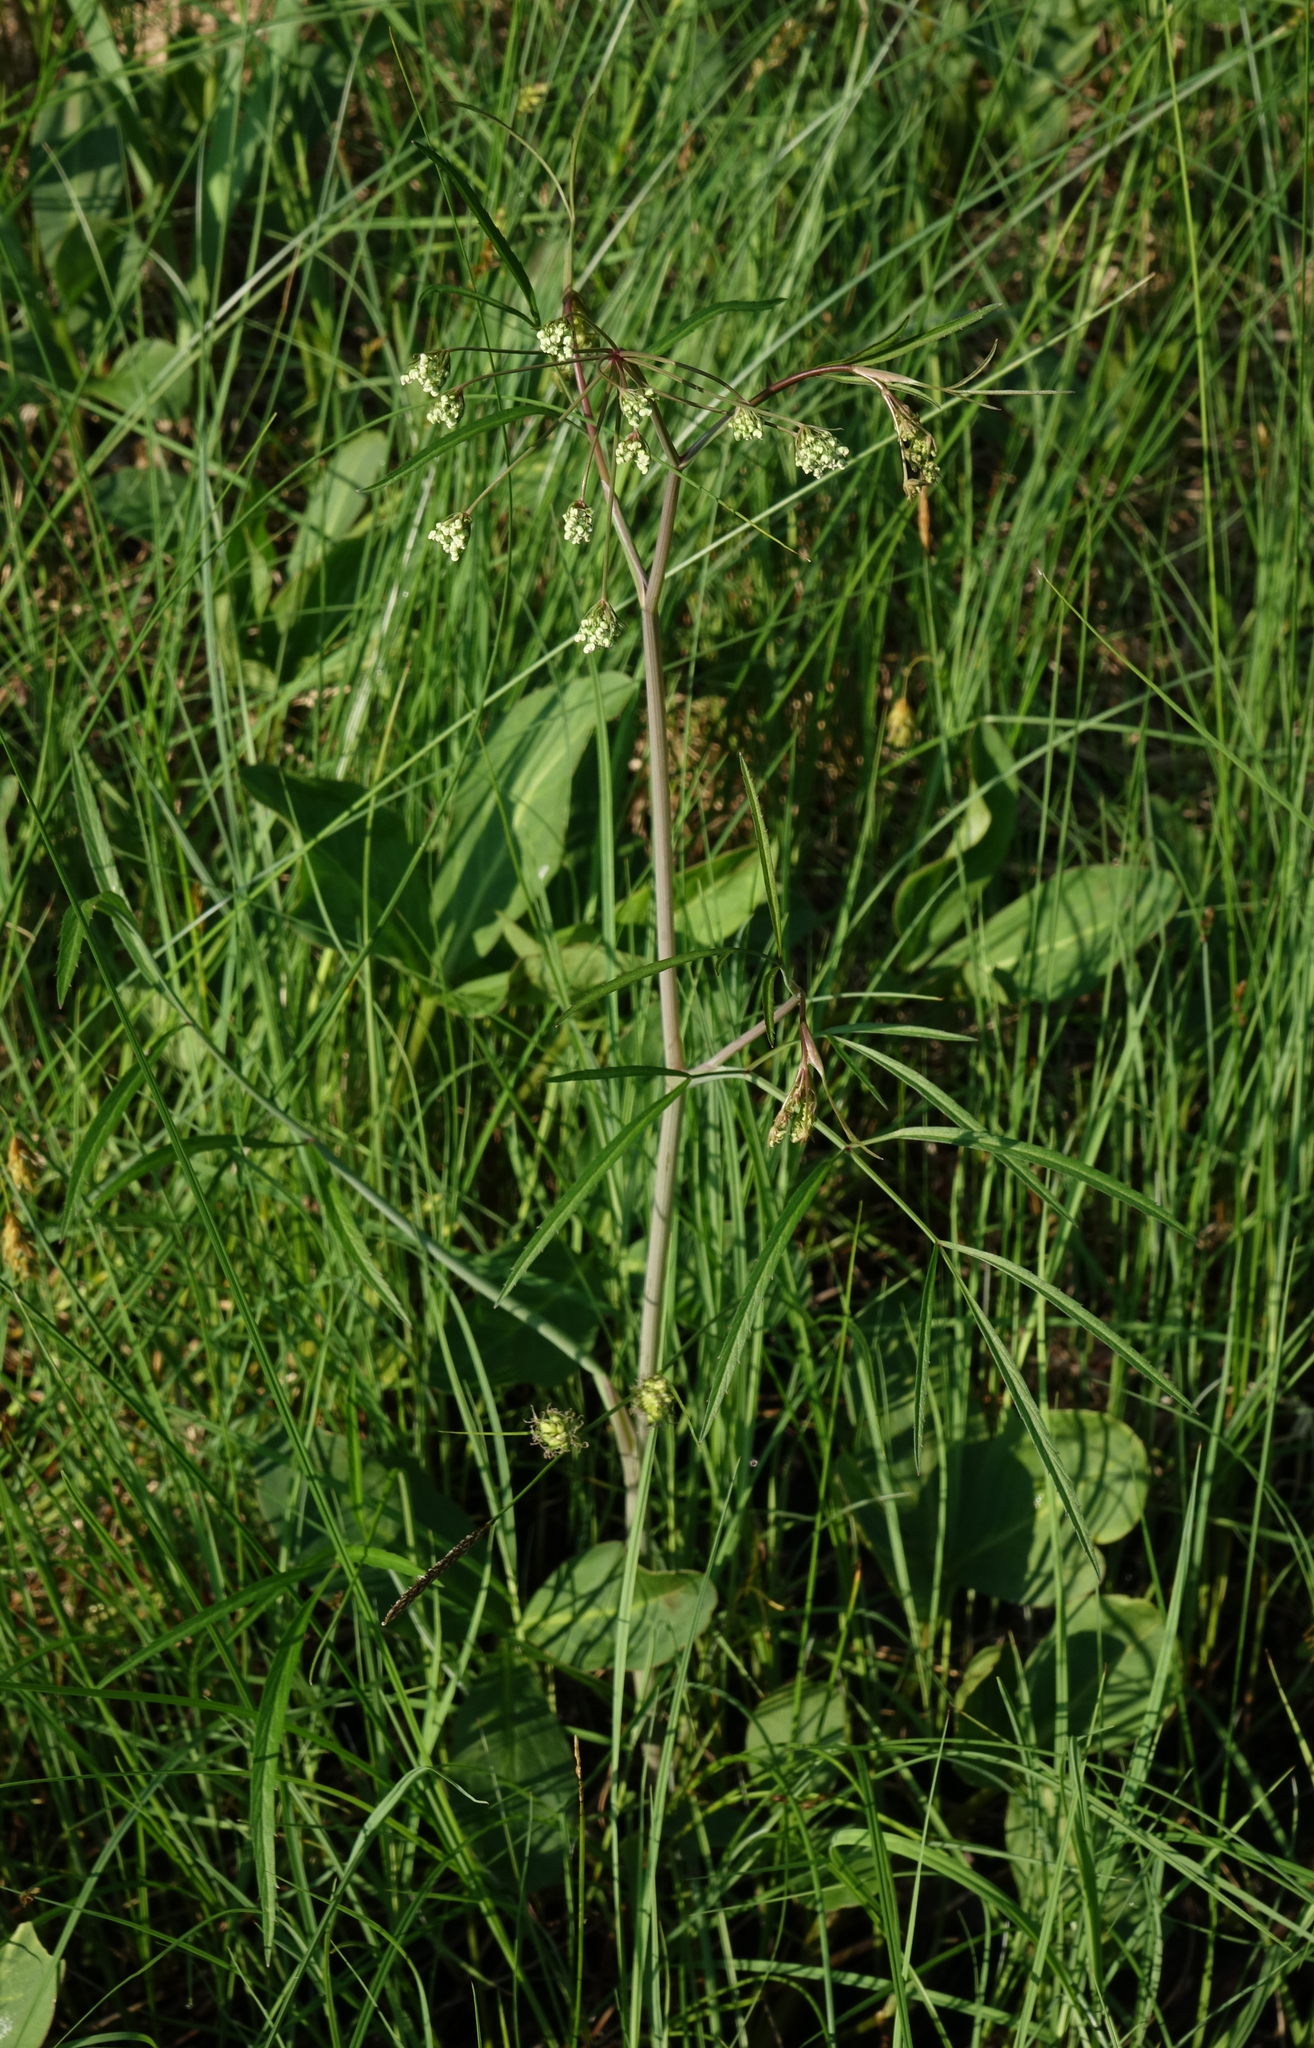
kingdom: Plantae
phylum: Tracheophyta
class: Magnoliopsida
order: Apiales
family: Apiaceae
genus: Conioselinum
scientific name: Conioselinum longifolium
